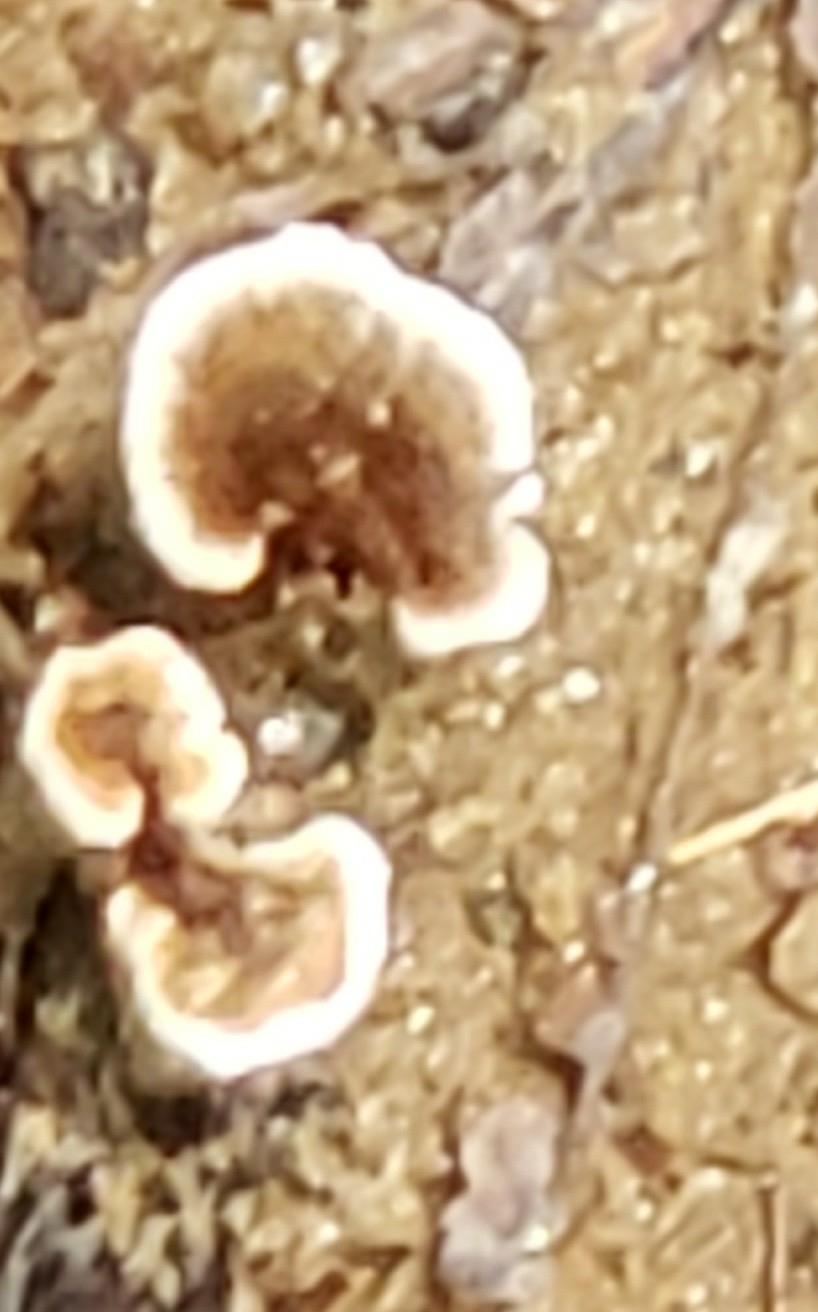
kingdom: Fungi
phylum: Basidiomycota
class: Agaricomycetes
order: Polyporales
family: Polyporaceae
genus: Ganoderma
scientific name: Ganoderma resinaceum
